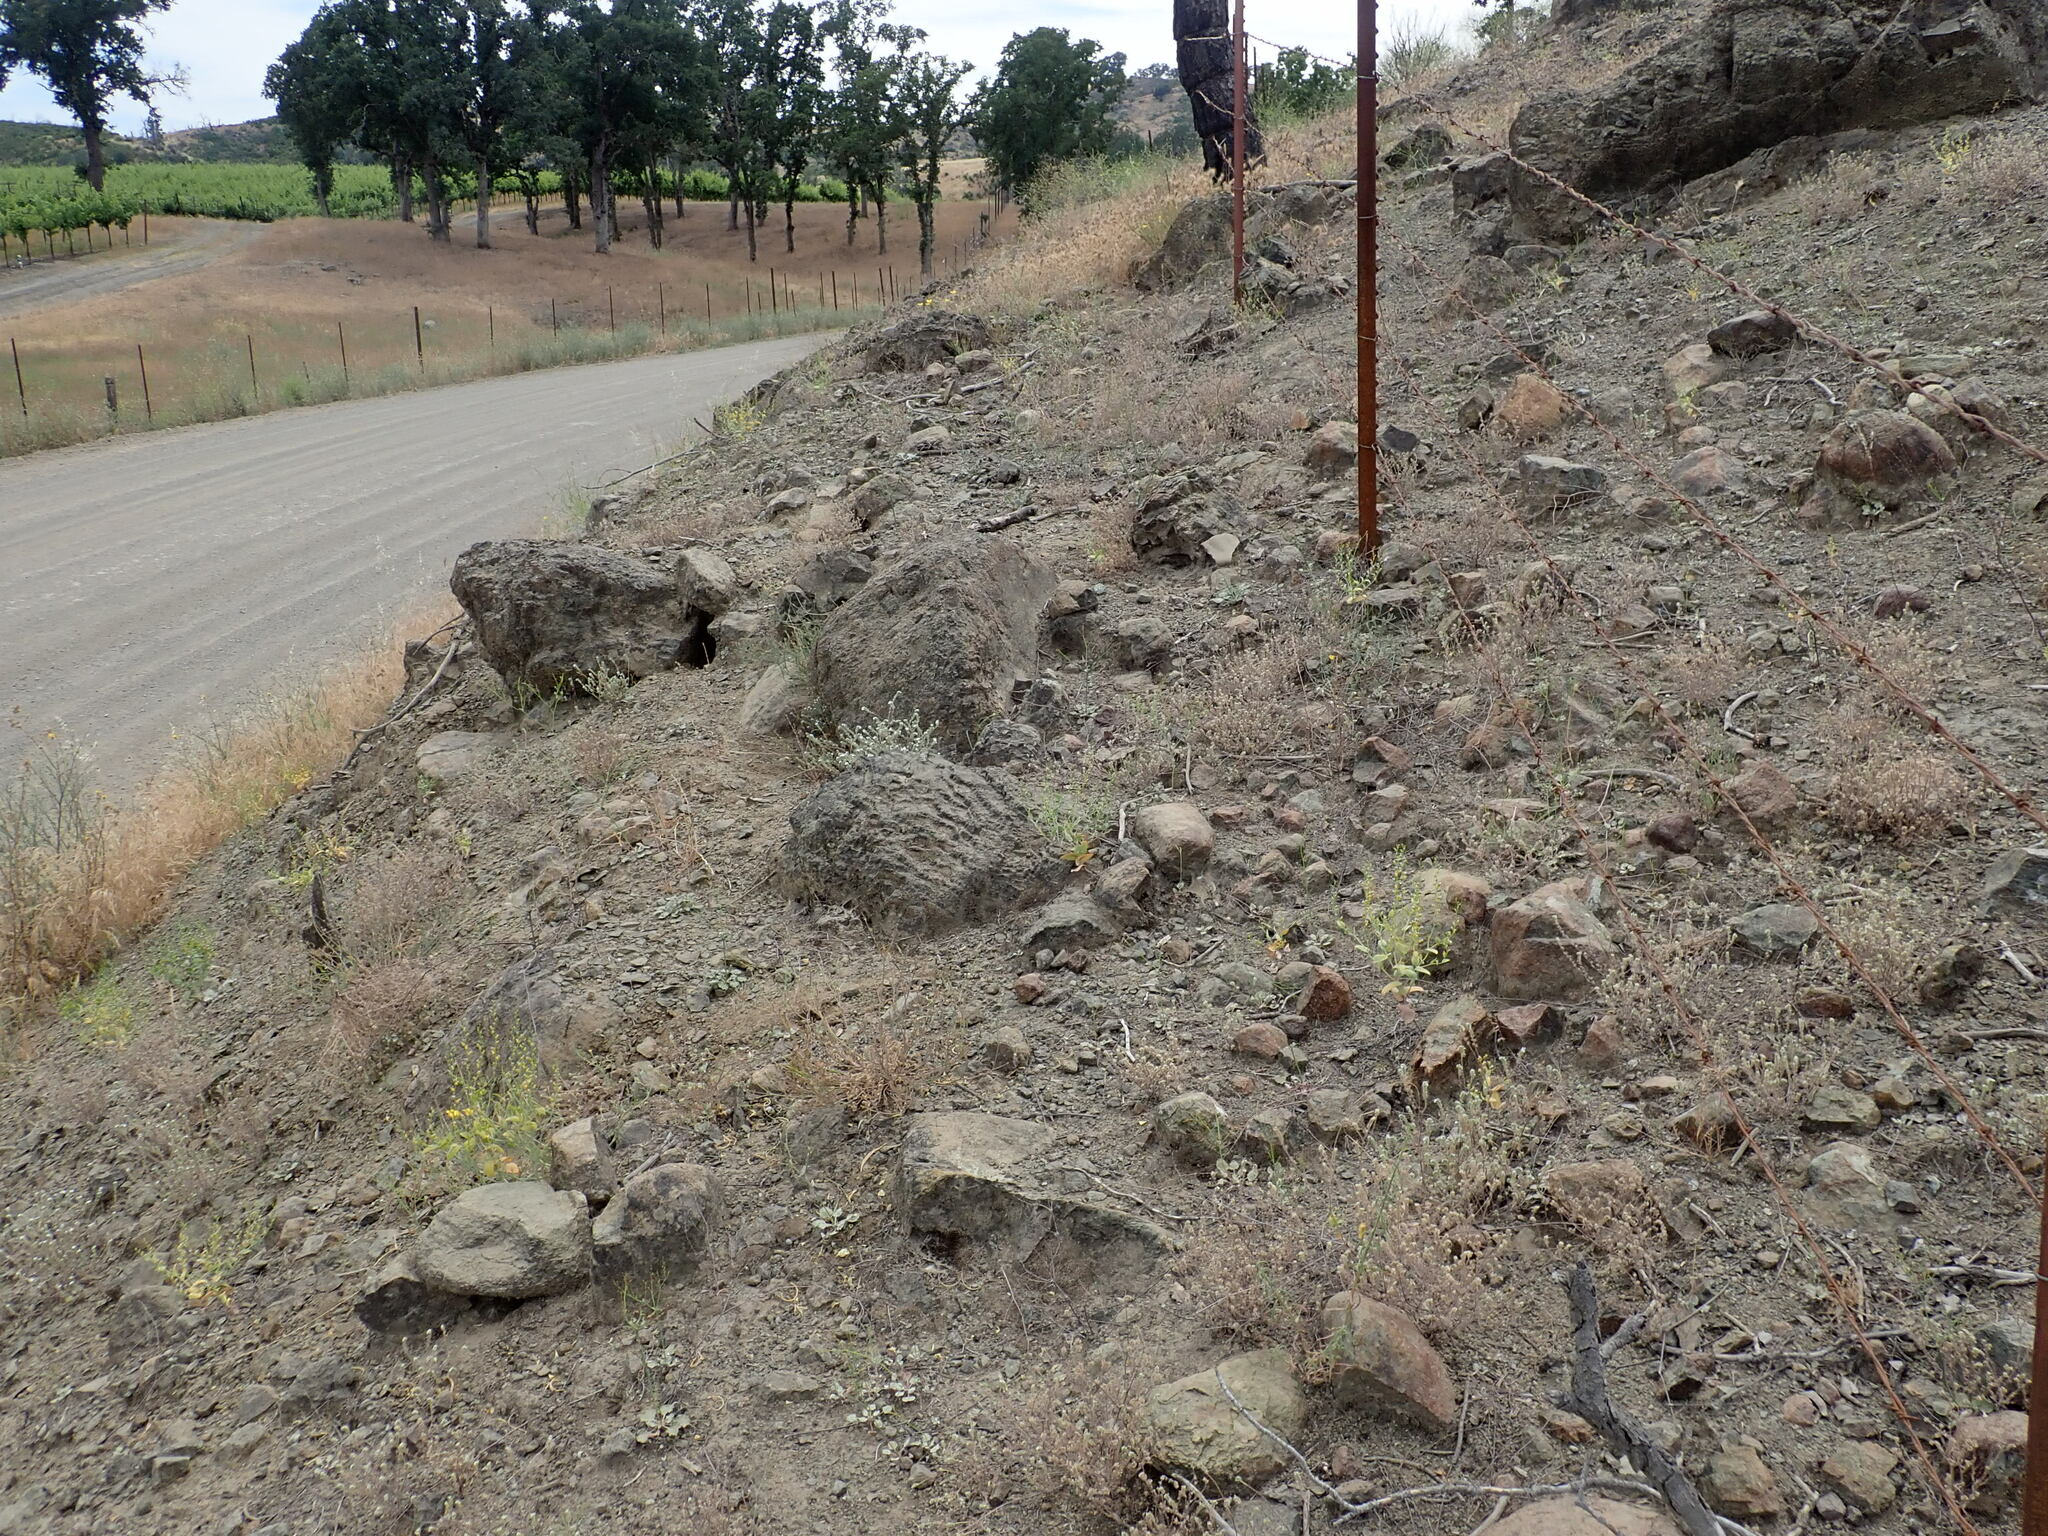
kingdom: Plantae
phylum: Tracheophyta
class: Magnoliopsida
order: Brassicales
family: Brassicaceae
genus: Streptanthus
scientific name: Streptanthus hesperidis
